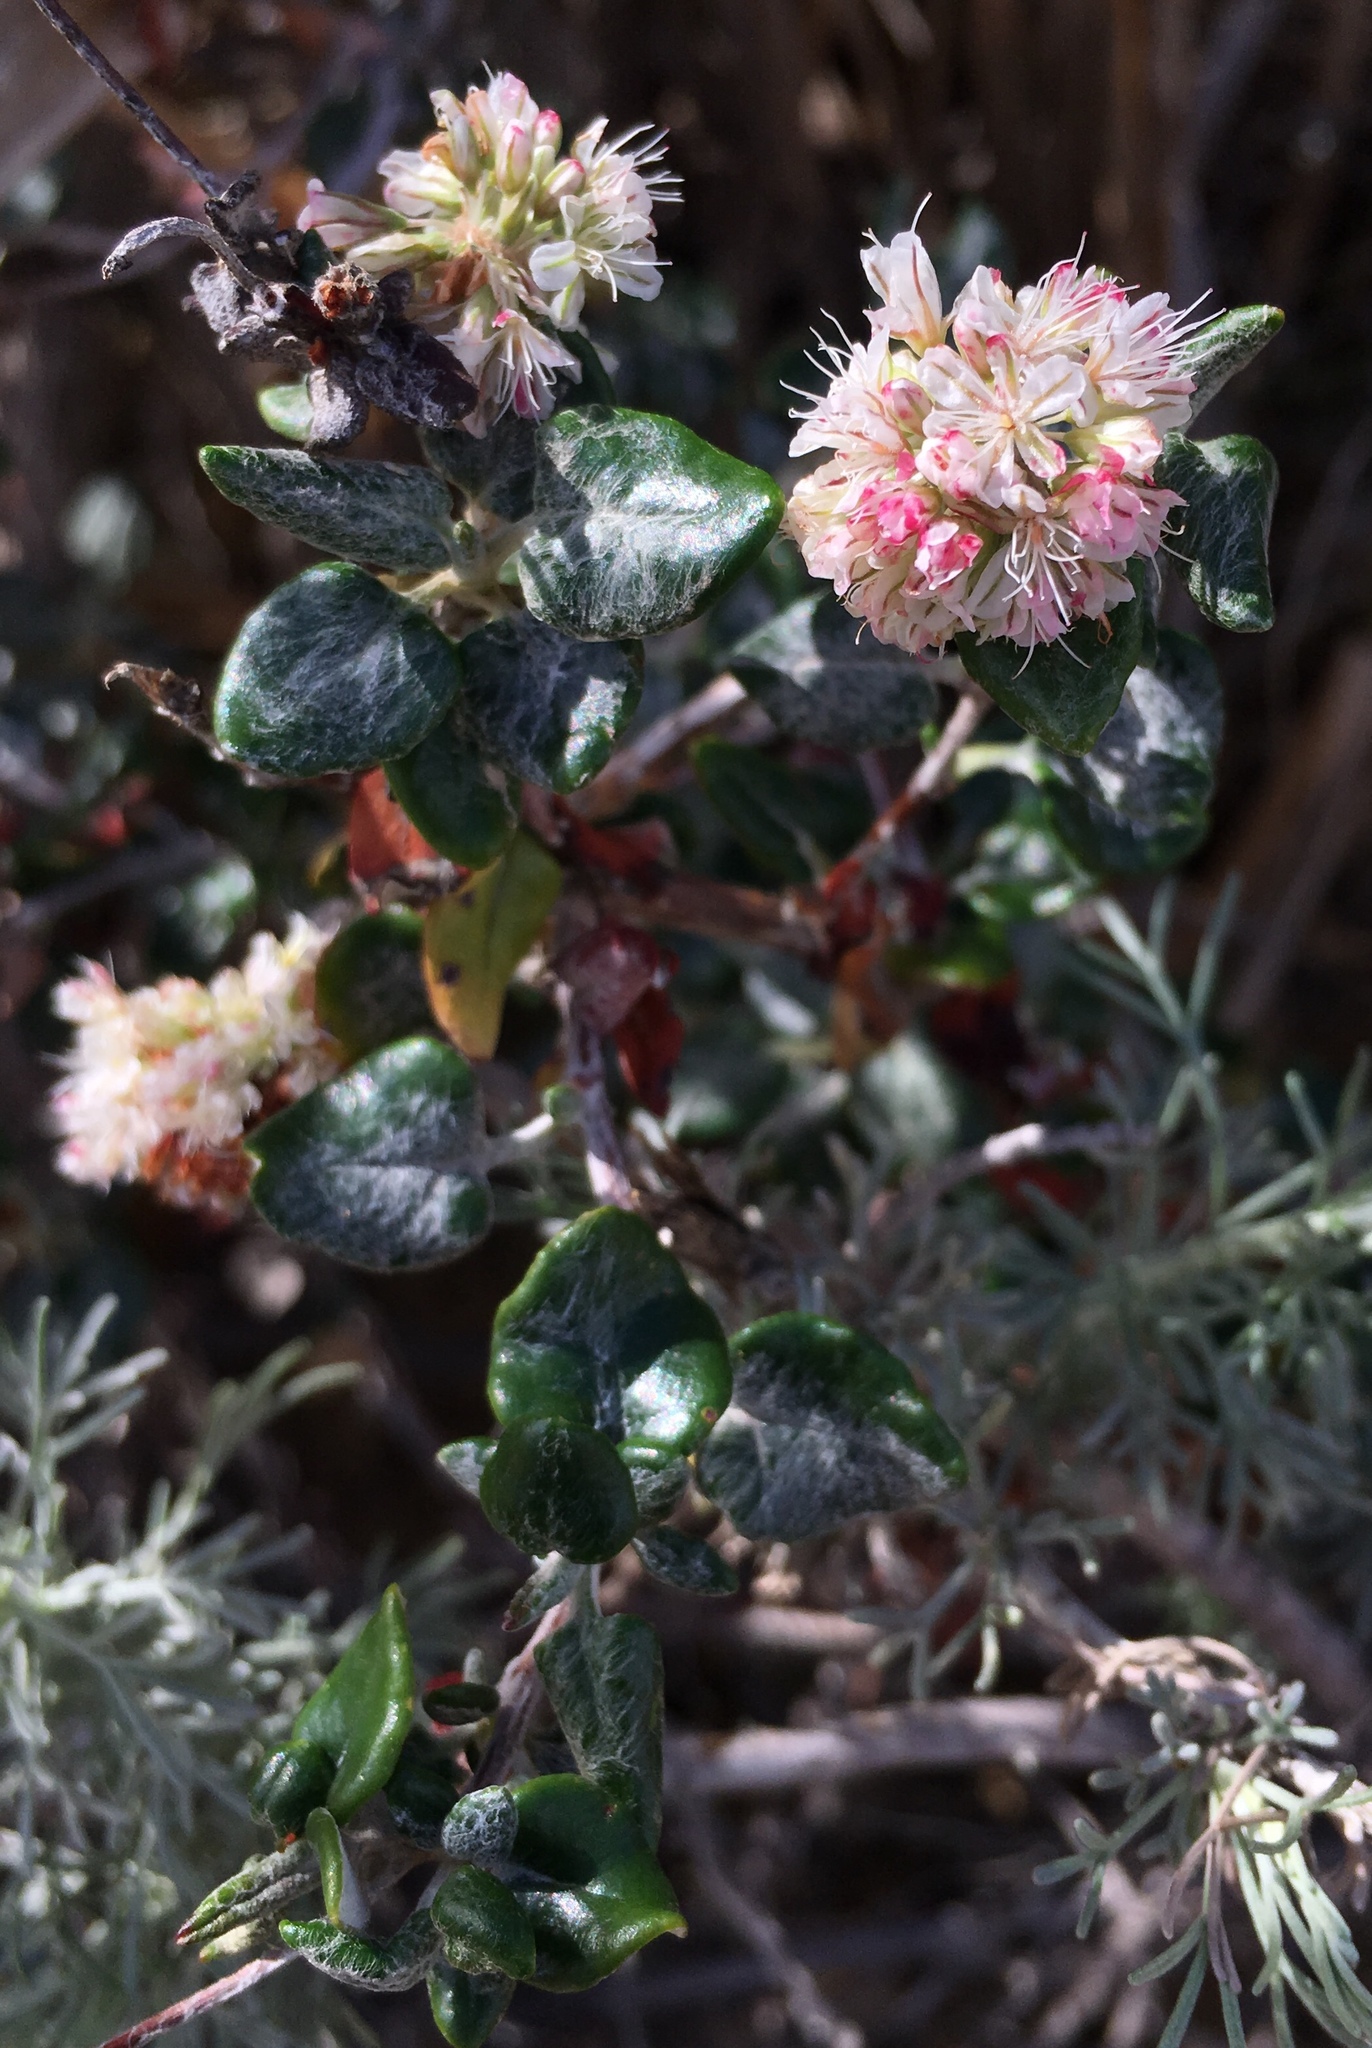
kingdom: Plantae
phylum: Tracheophyta
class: Magnoliopsida
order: Caryophyllales
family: Polygonaceae
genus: Eriogonum
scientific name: Eriogonum parvifolium
